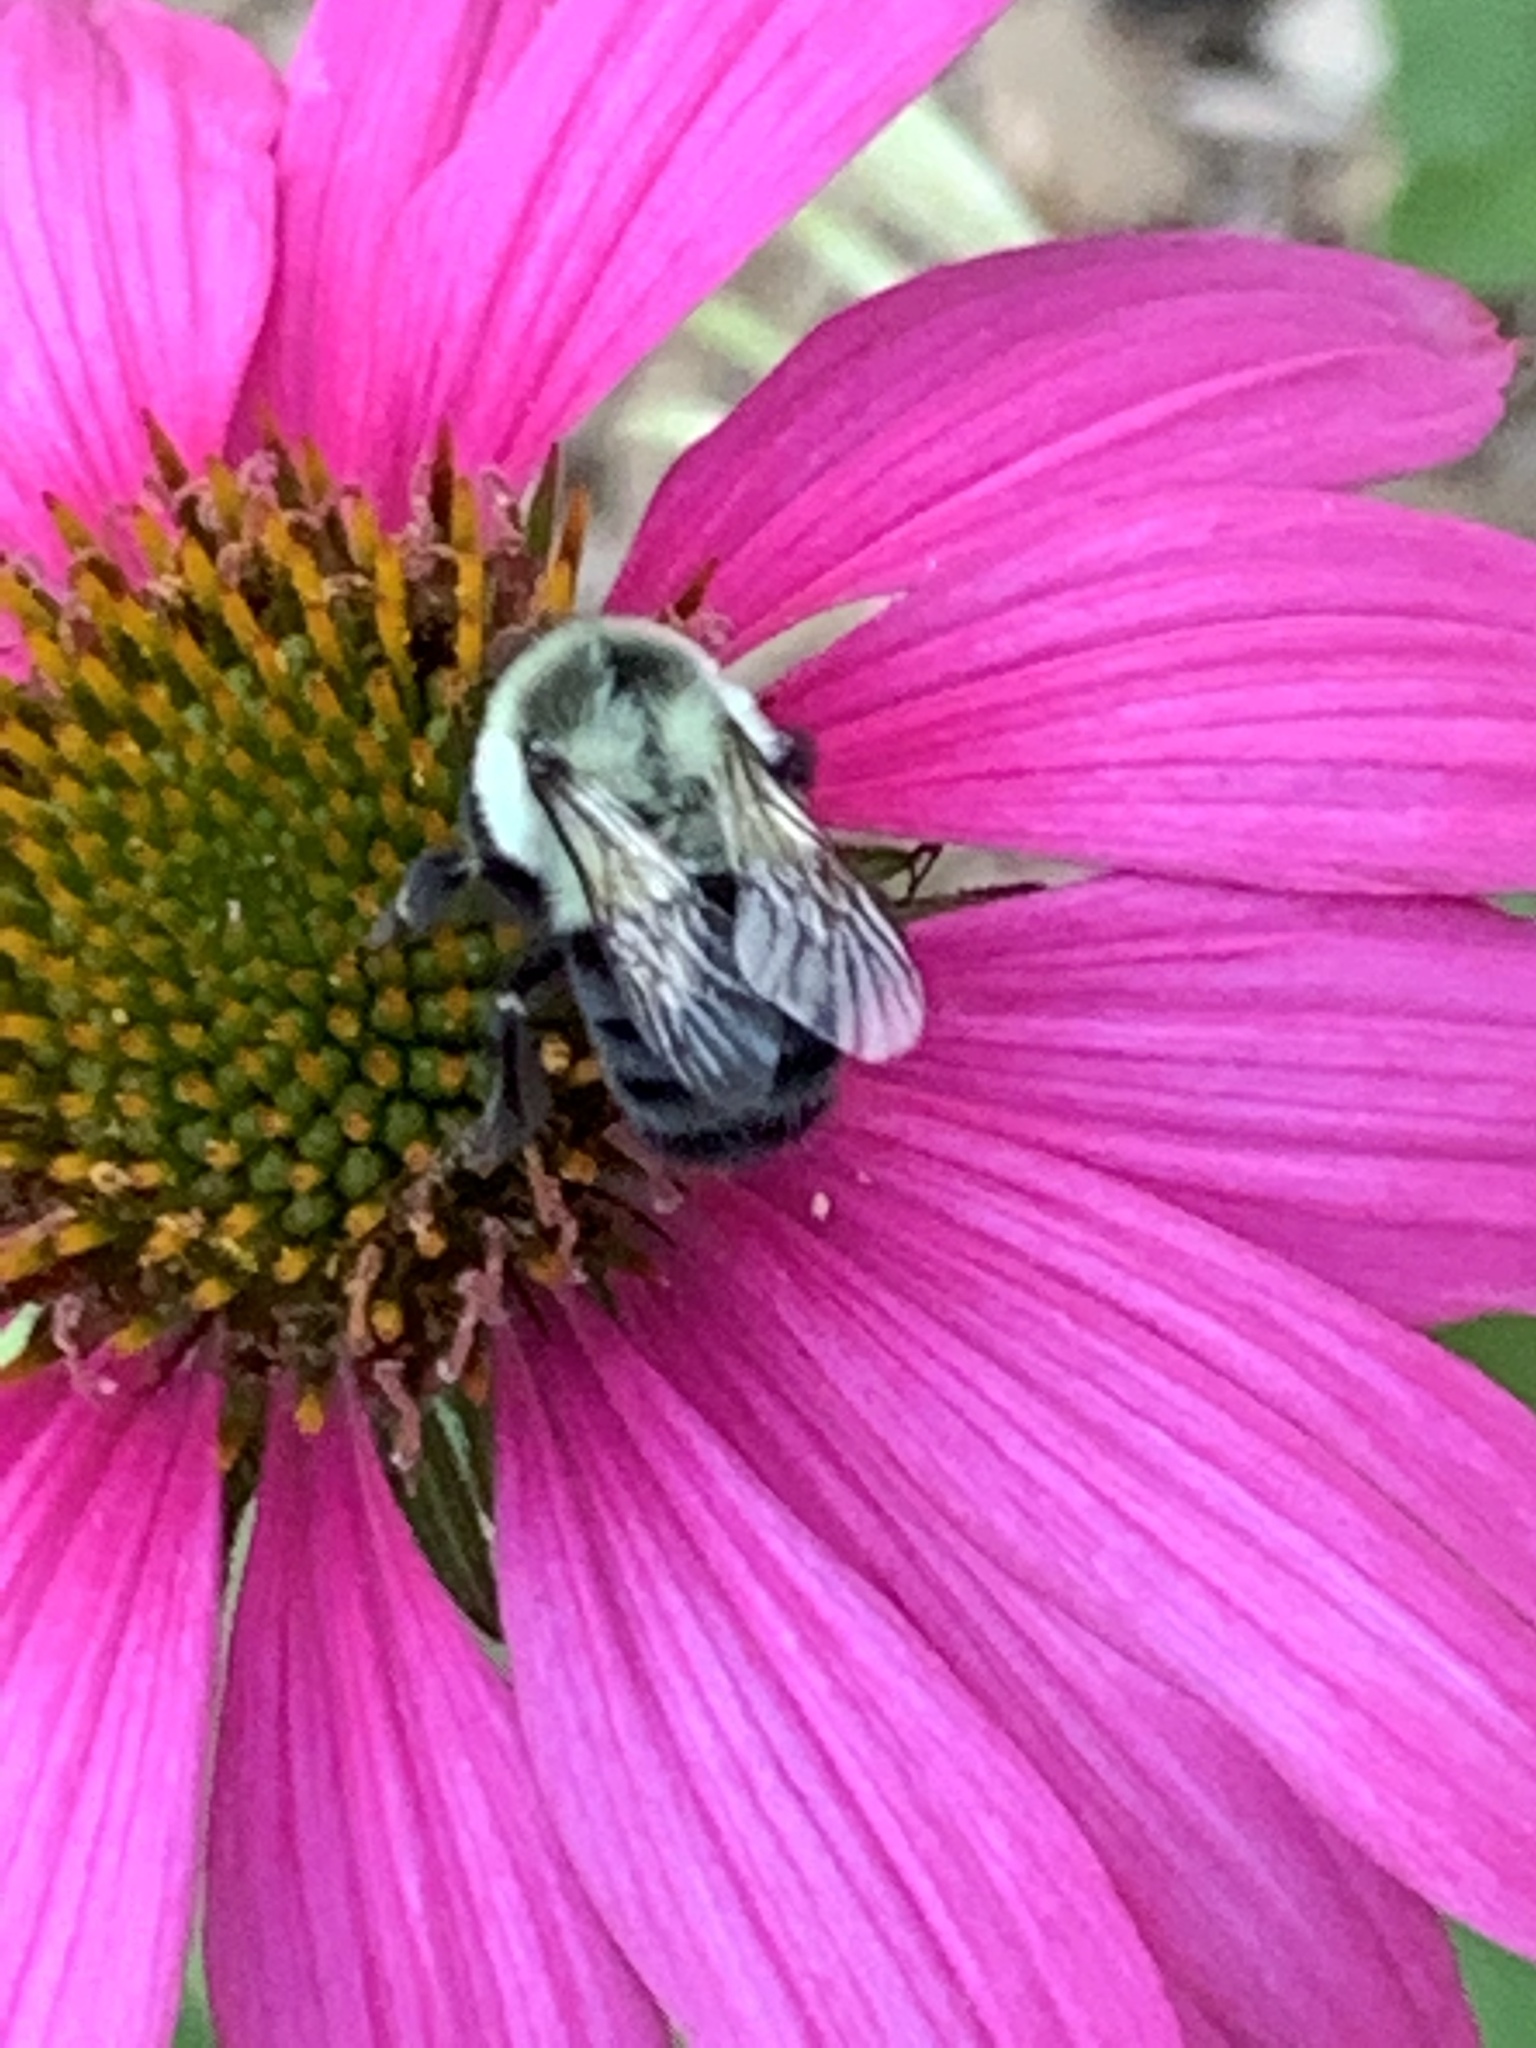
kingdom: Animalia
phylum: Arthropoda
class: Insecta
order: Hymenoptera
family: Apidae
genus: Bombus
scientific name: Bombus impatiens
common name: Common eastern bumble bee
